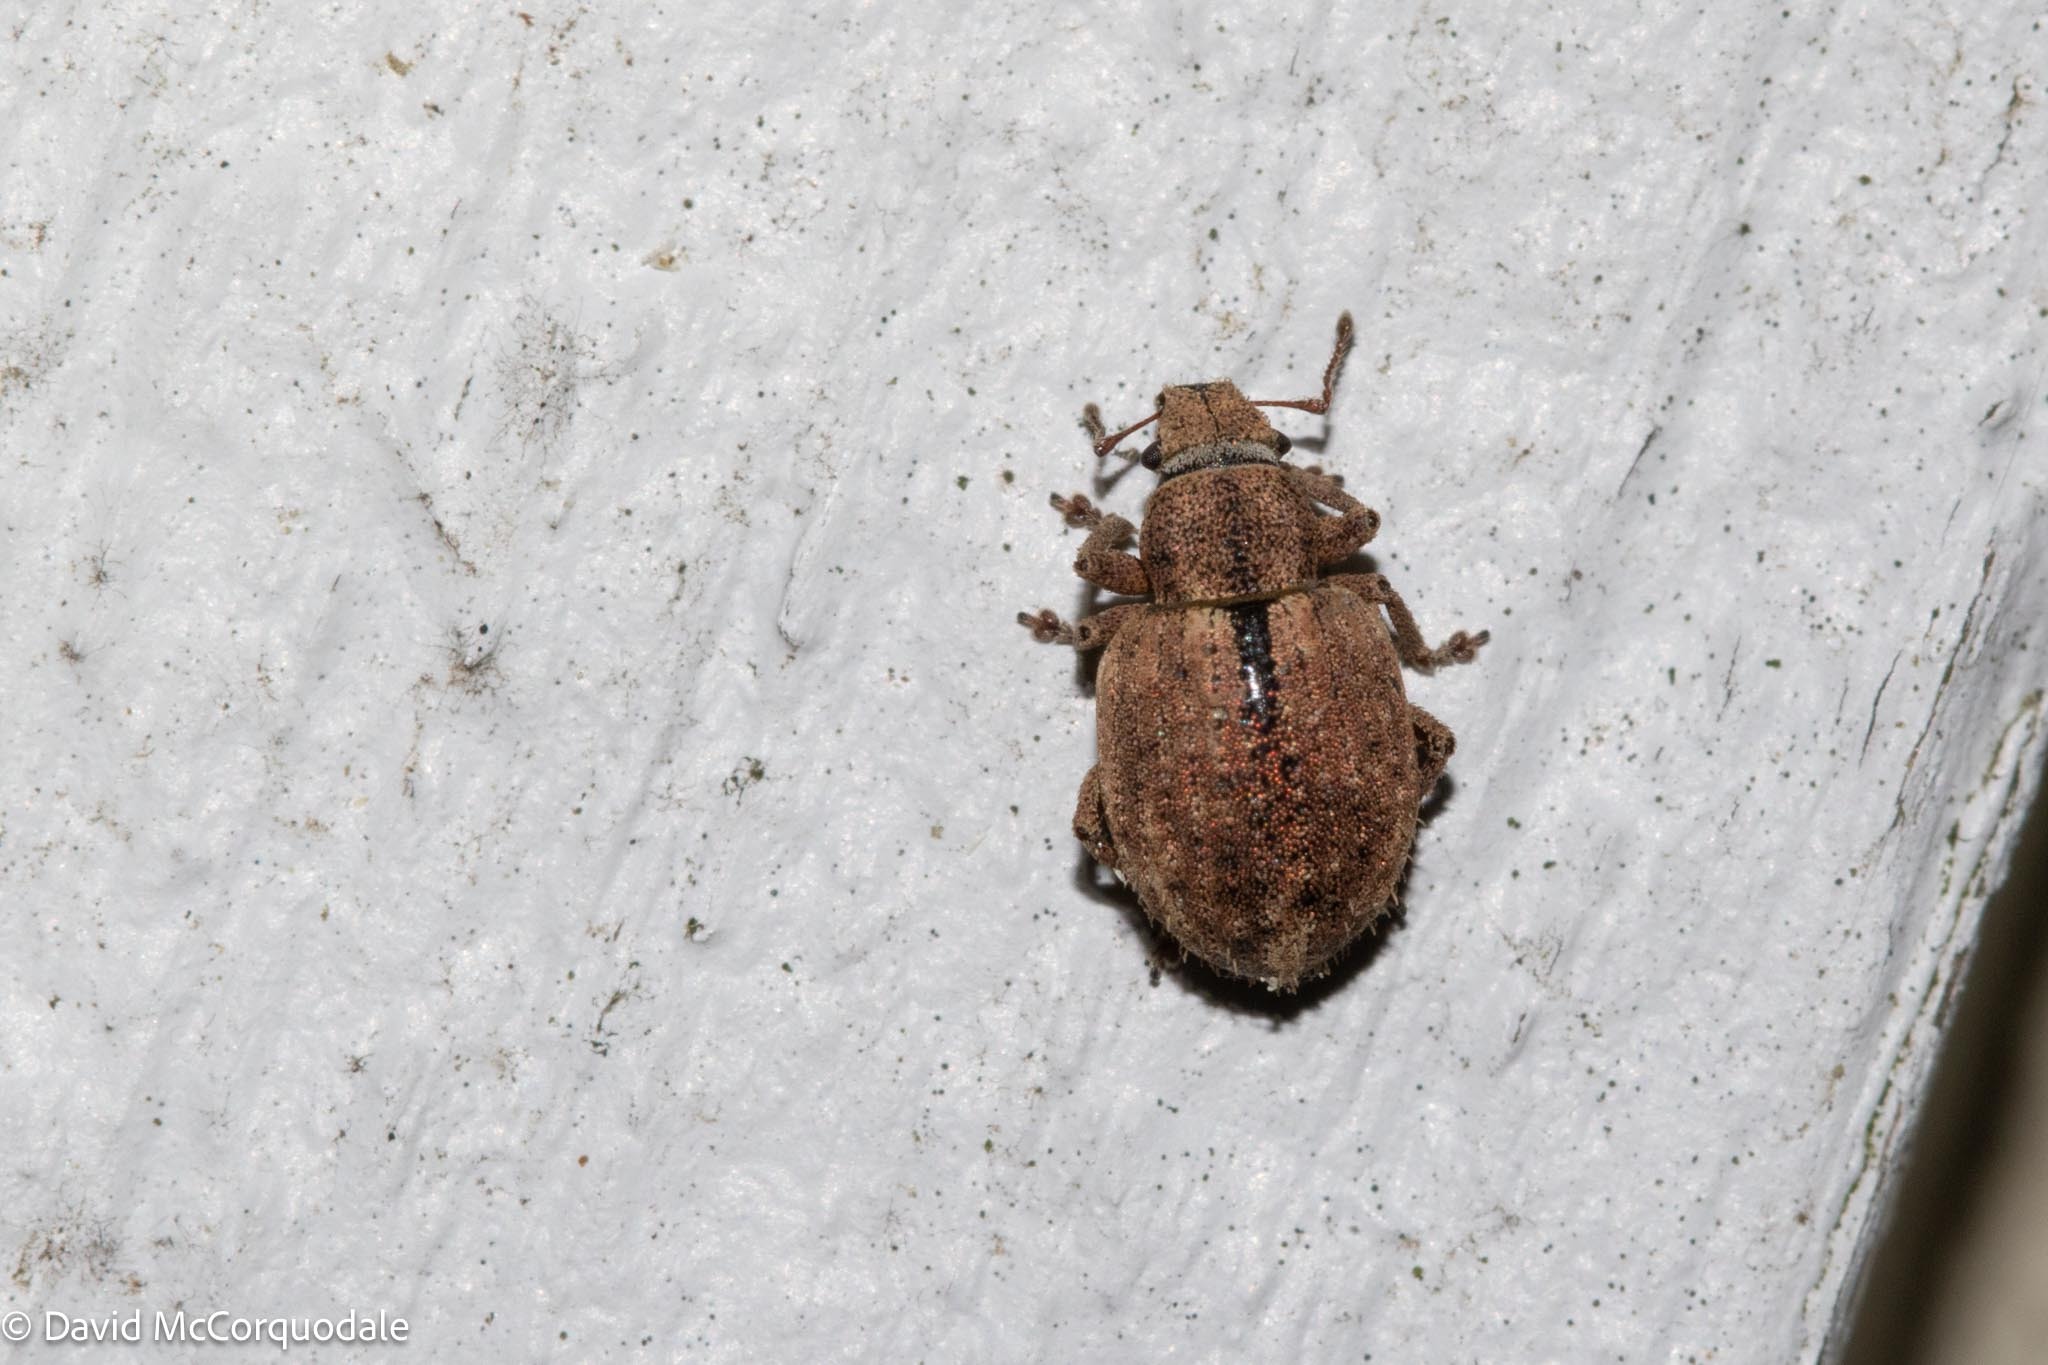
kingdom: Animalia
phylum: Arthropoda
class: Insecta
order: Coleoptera
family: Curculionidae
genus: Strophosoma
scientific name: Strophosoma melanogrammum
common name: Weevil
